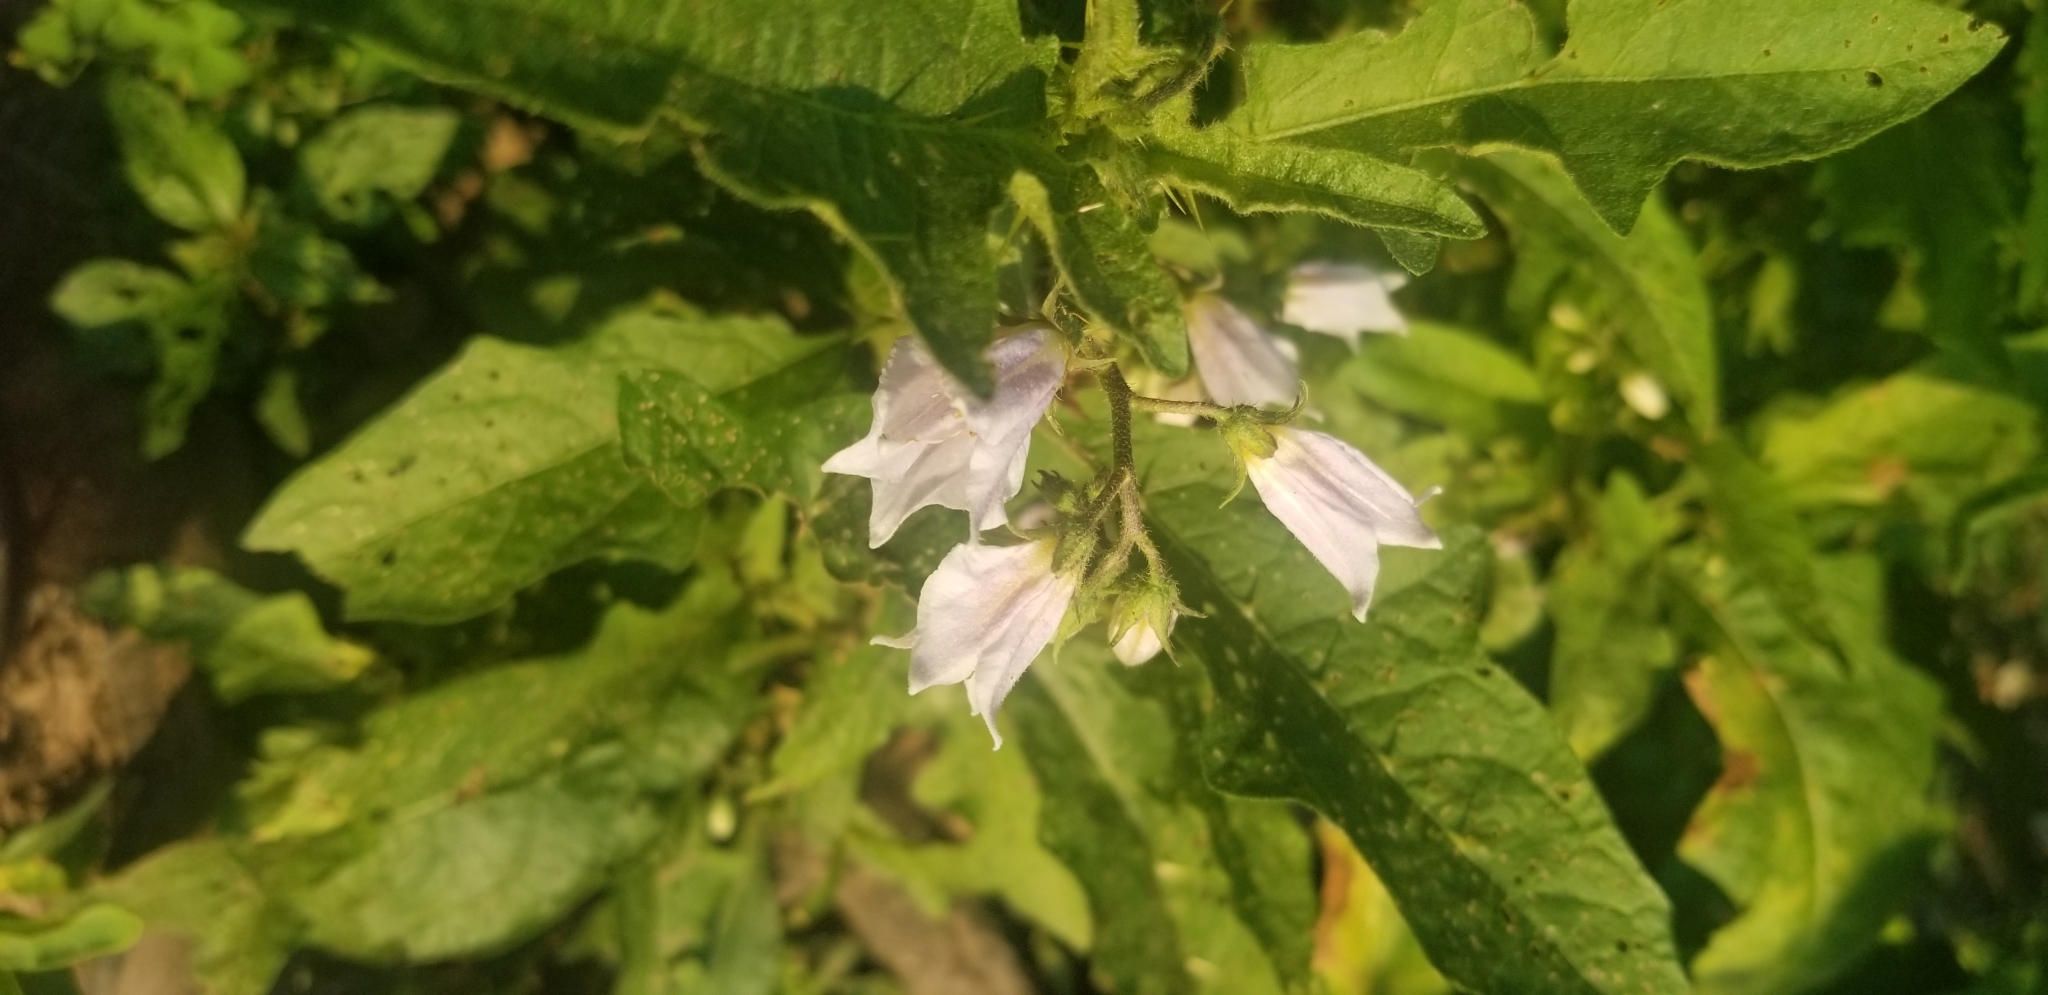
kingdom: Plantae
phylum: Tracheophyta
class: Magnoliopsida
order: Solanales
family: Solanaceae
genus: Solanum
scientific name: Solanum carolinense
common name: Horse-nettle
